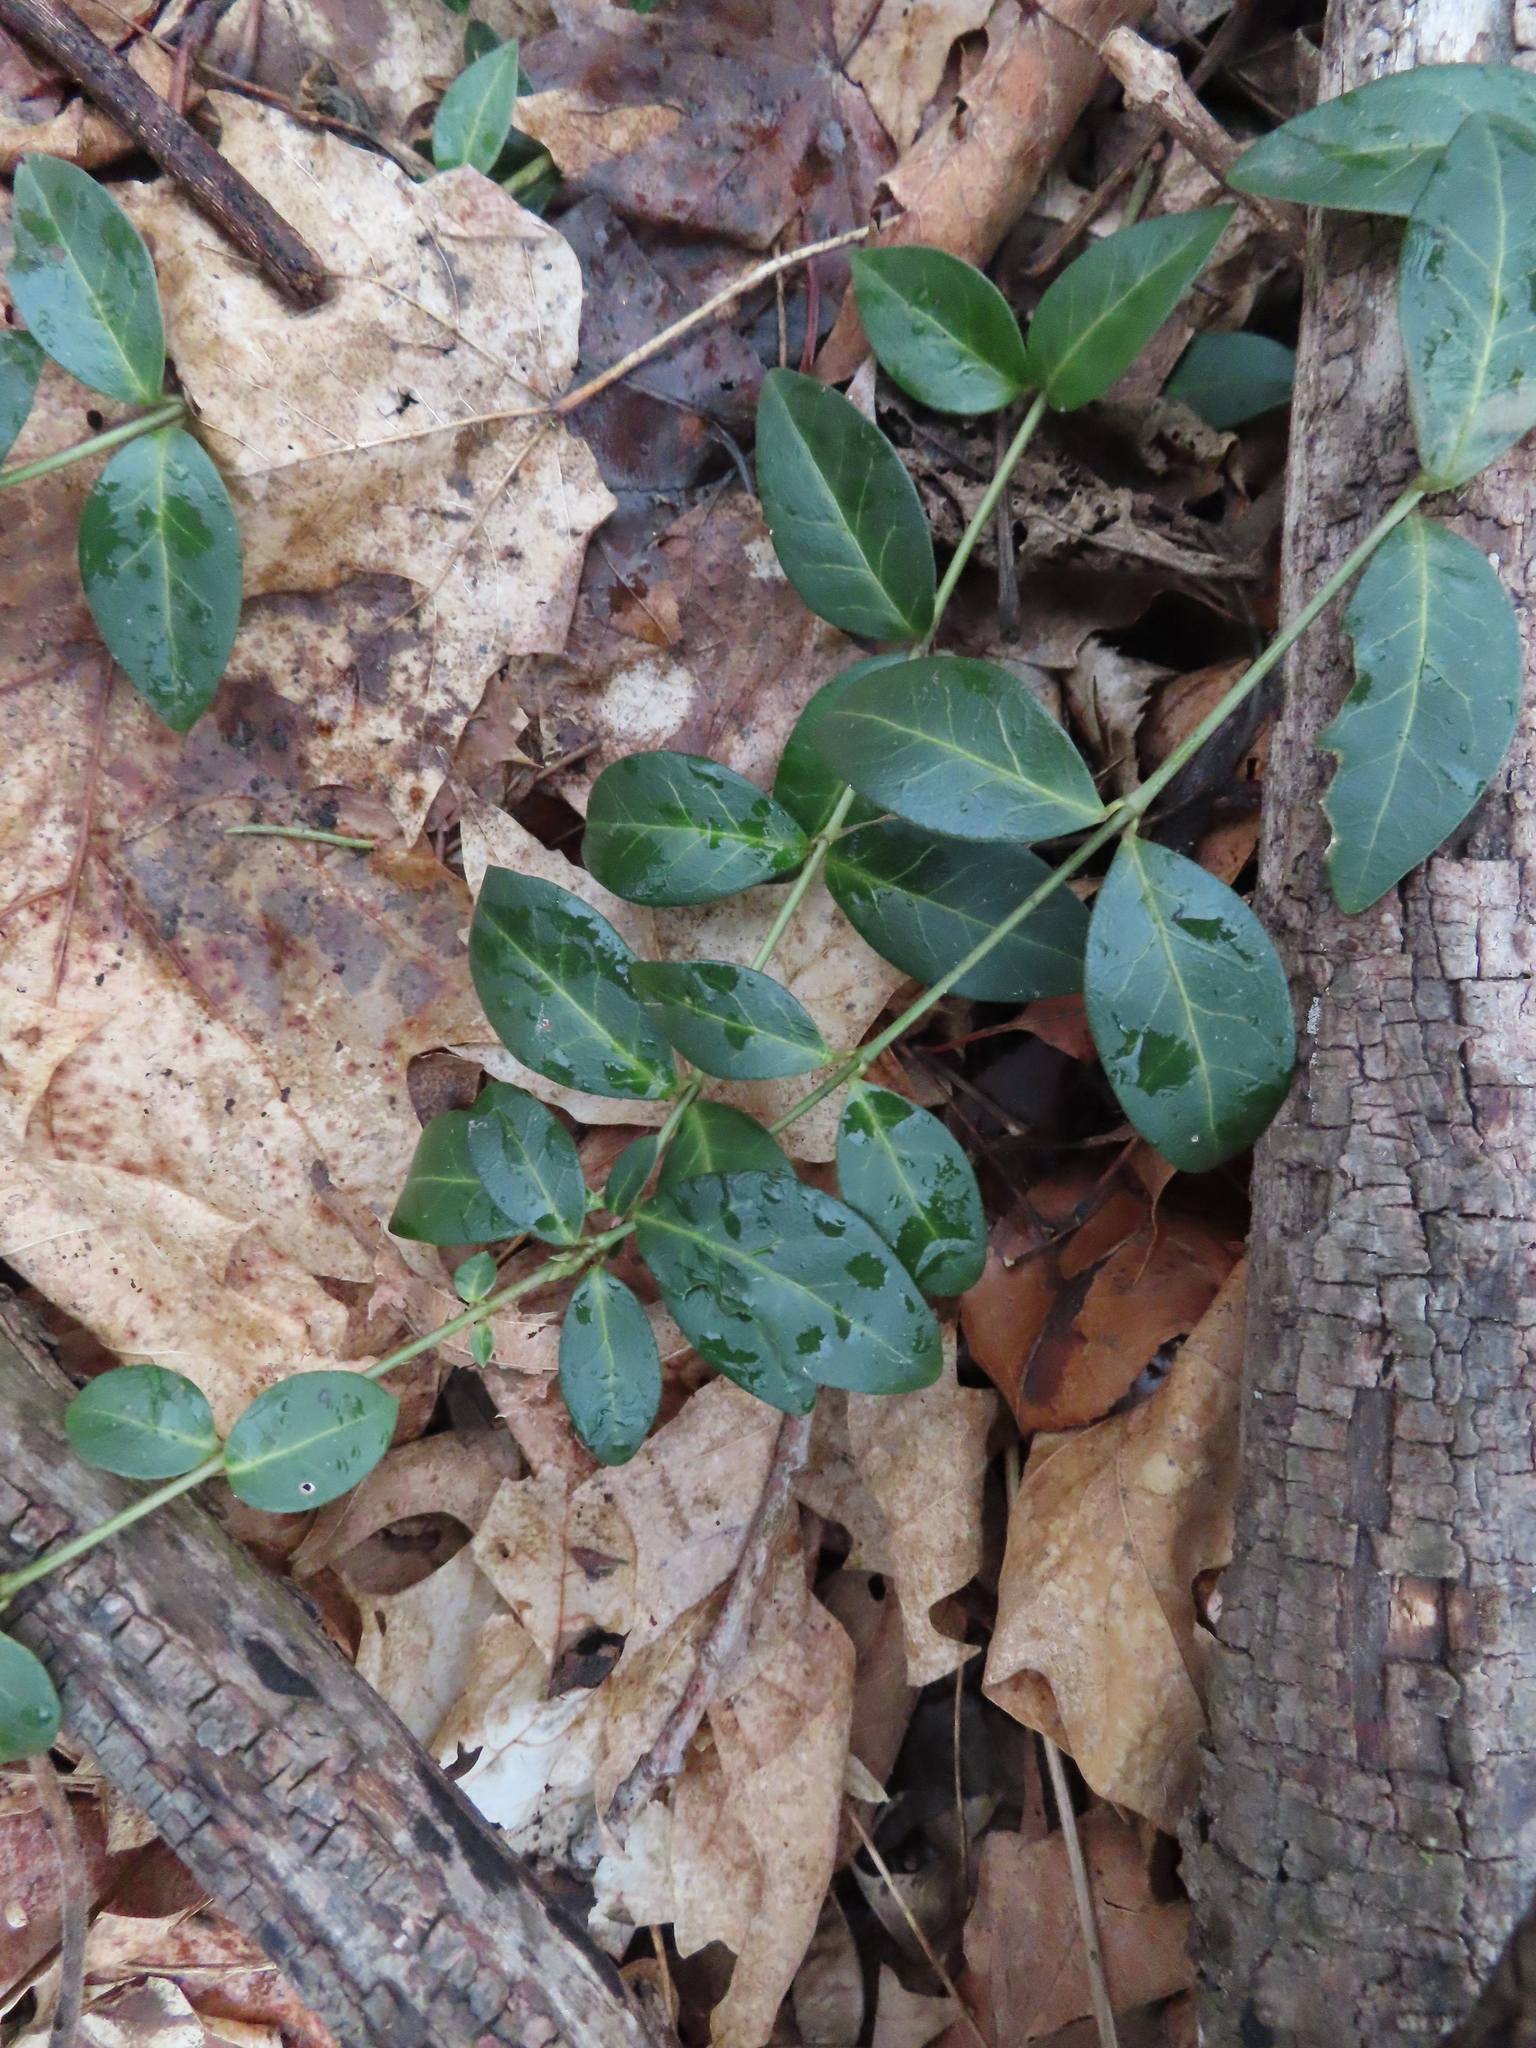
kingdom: Plantae
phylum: Tracheophyta
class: Magnoliopsida
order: Gentianales
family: Apocynaceae
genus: Vinca
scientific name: Vinca minor
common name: Lesser periwinkle
